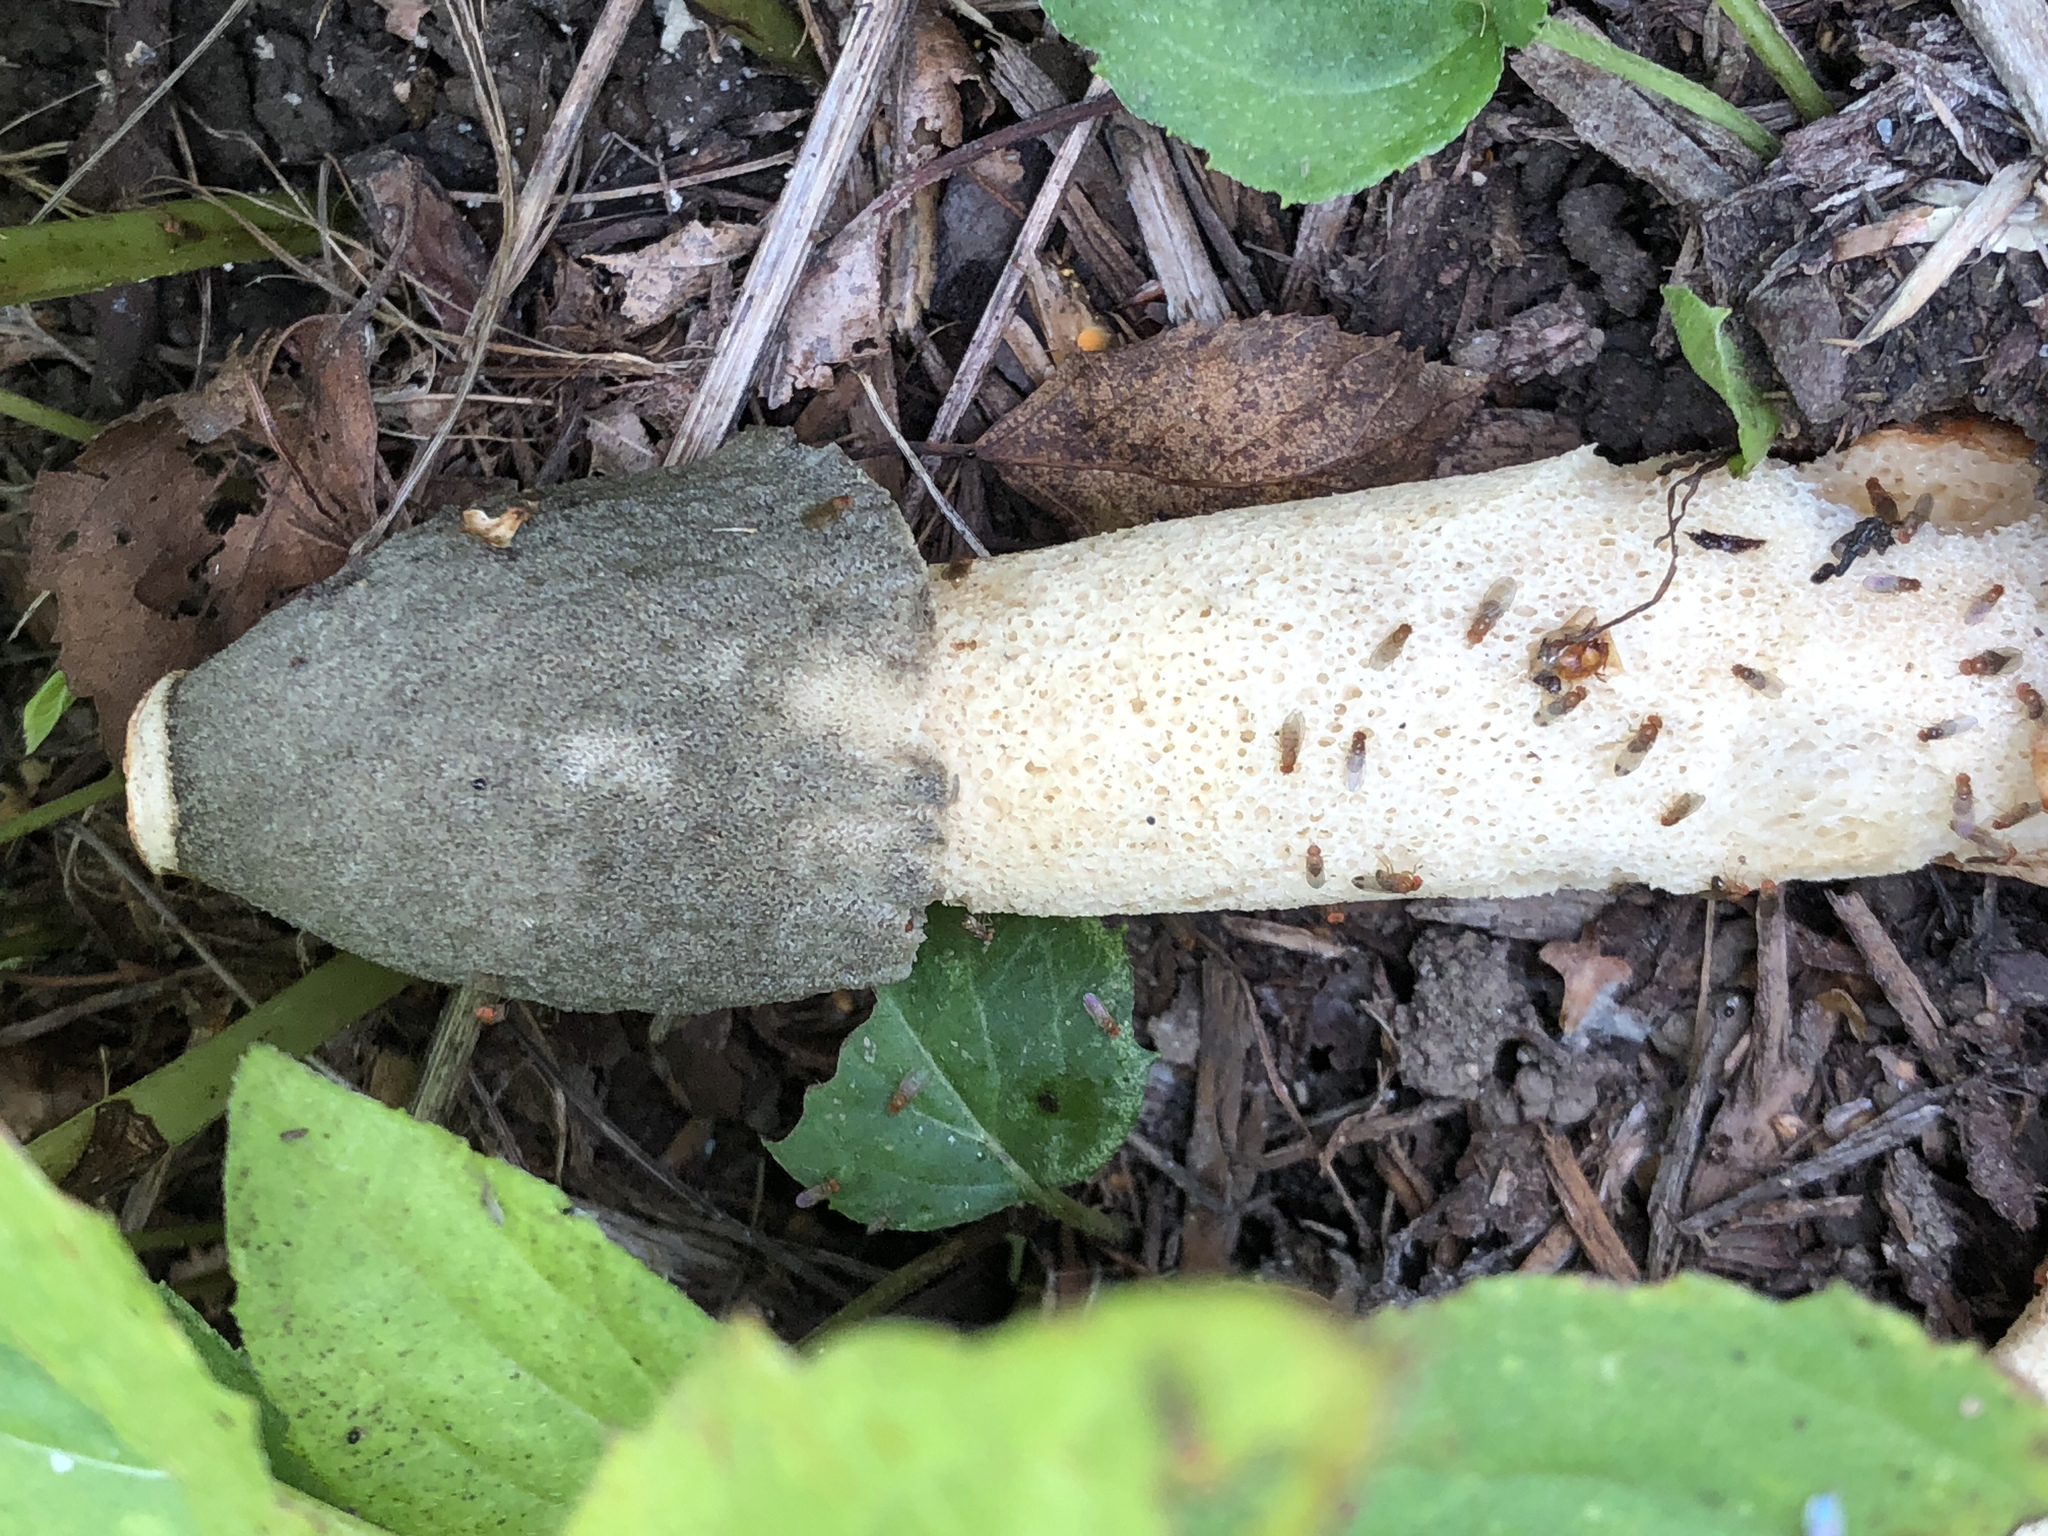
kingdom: Fungi
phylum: Basidiomycota
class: Agaricomycetes
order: Phallales
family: Phallaceae
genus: Phallus
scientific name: Phallus ravenelii
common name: Ravenel's stinkhorn
